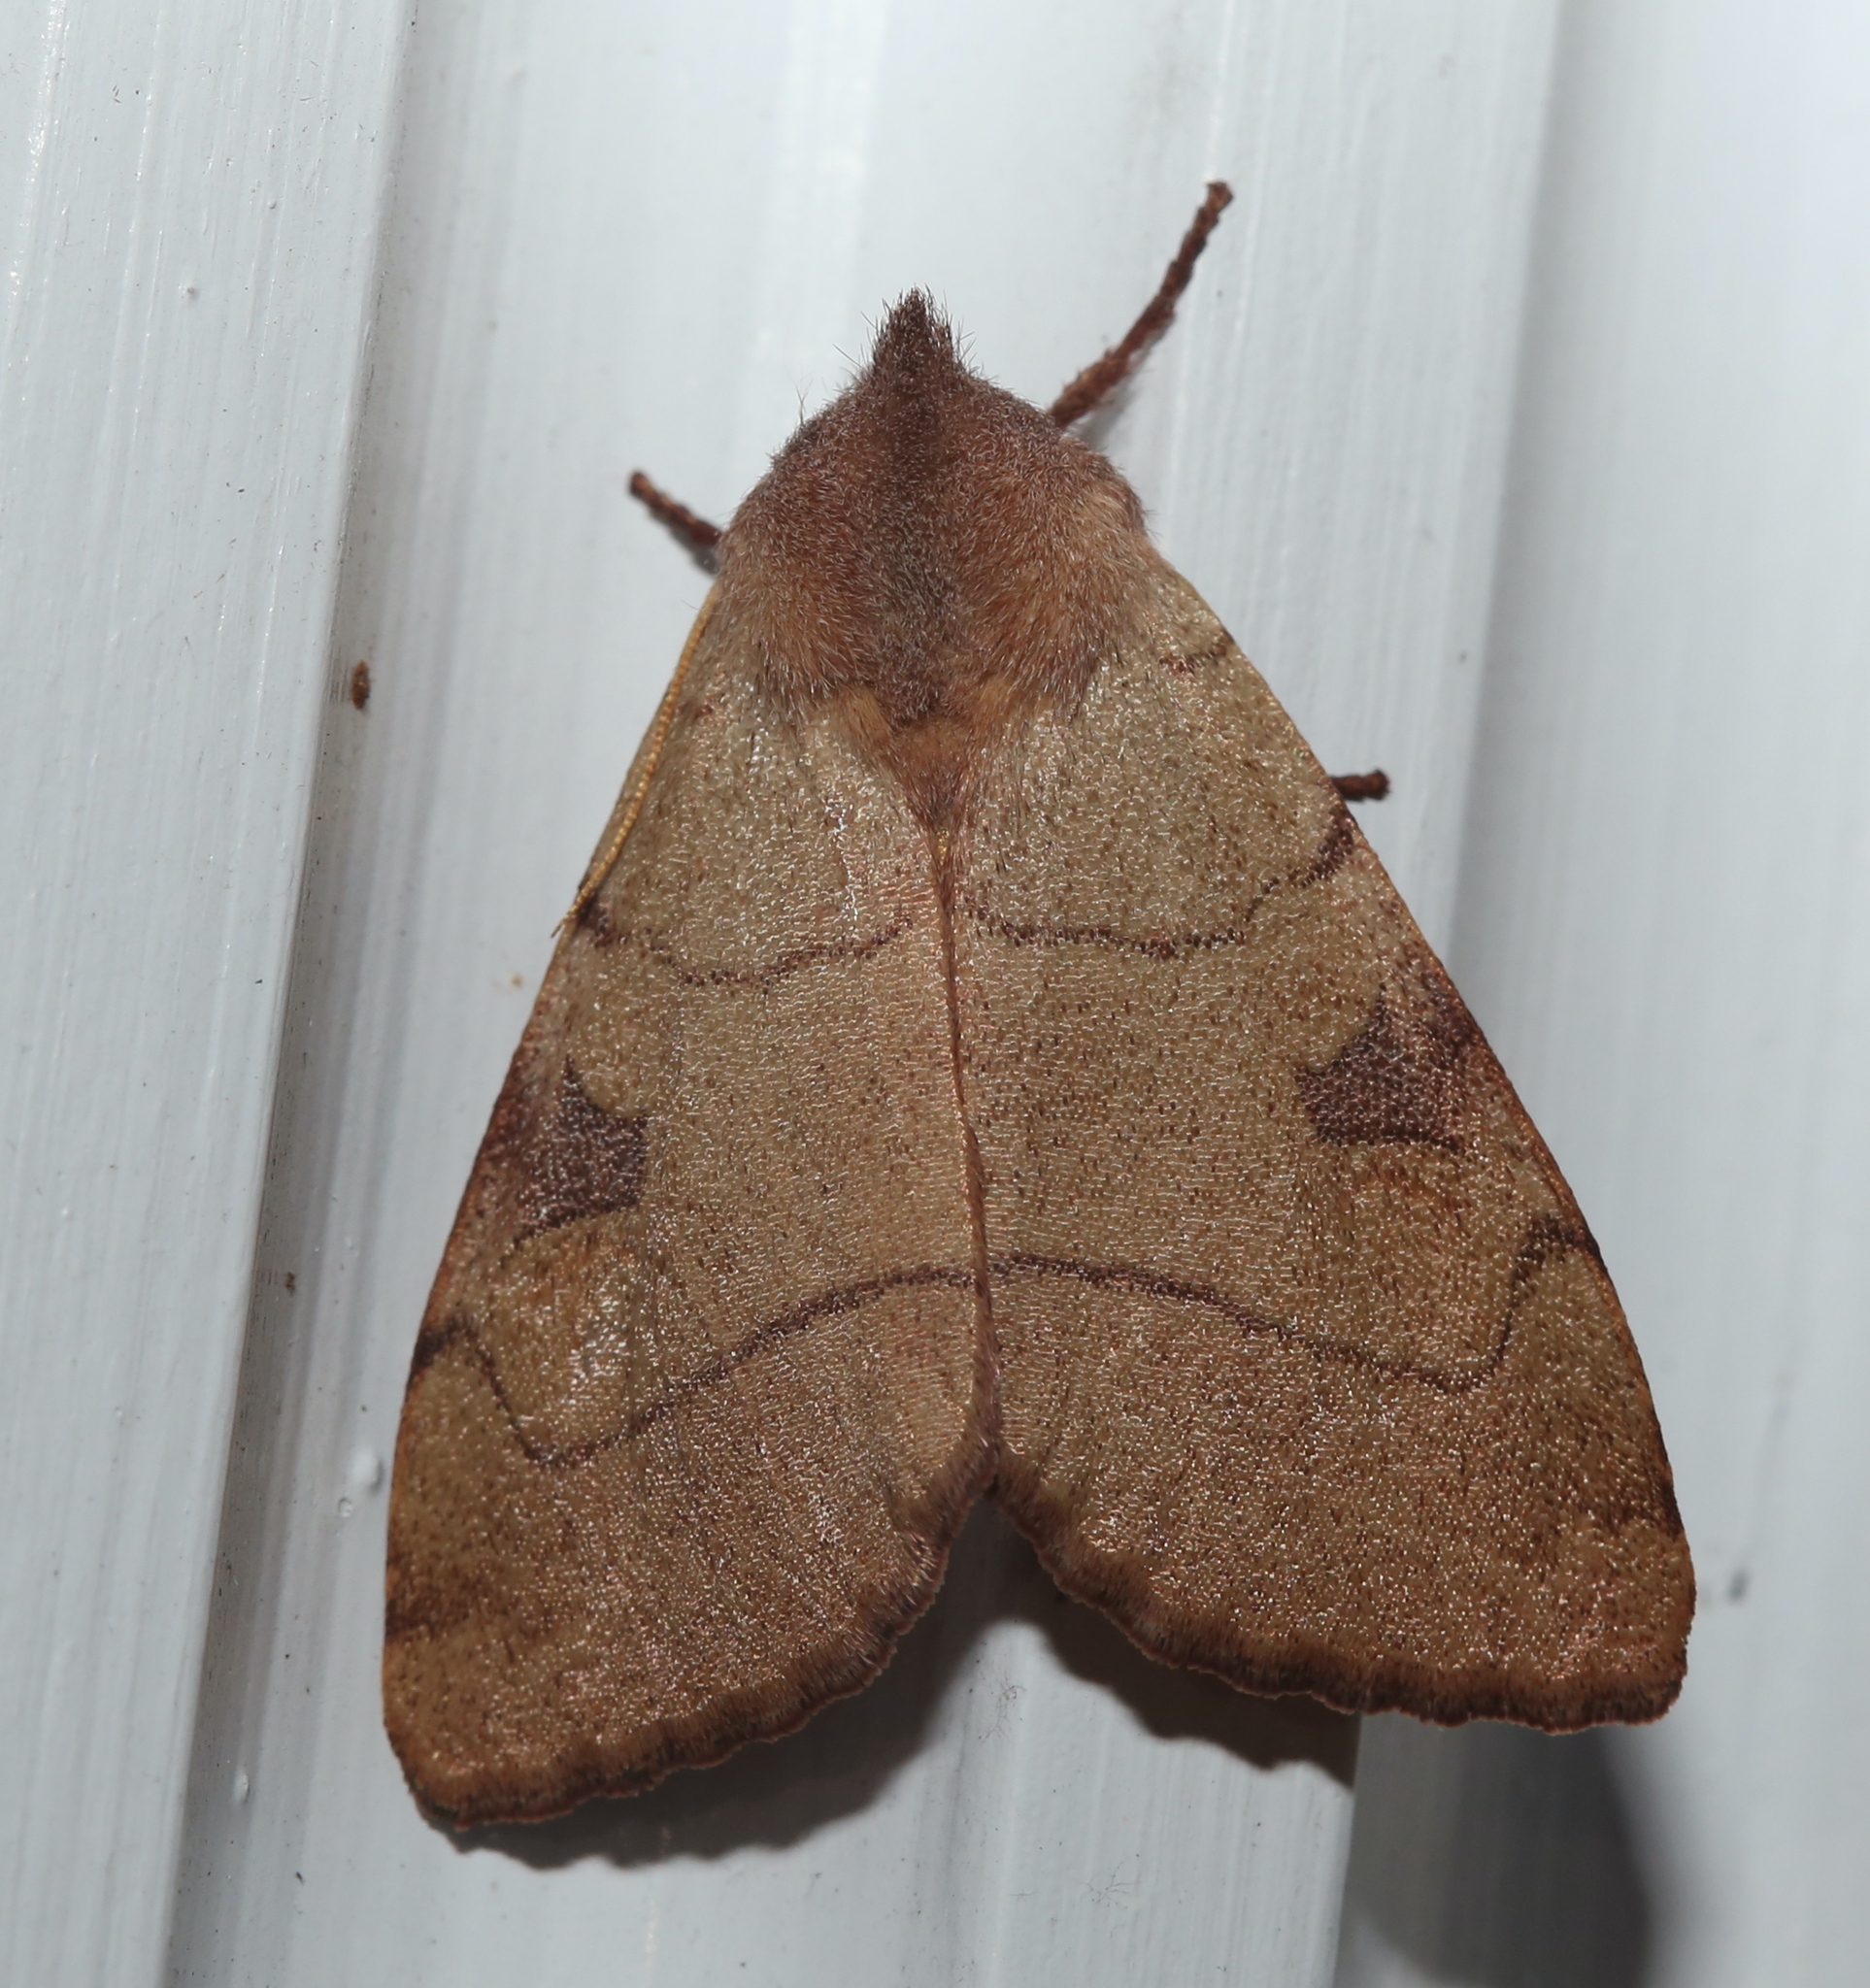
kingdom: Animalia
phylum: Arthropoda
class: Insecta
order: Lepidoptera
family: Noctuidae
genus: Choephora
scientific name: Choephora fungorum
